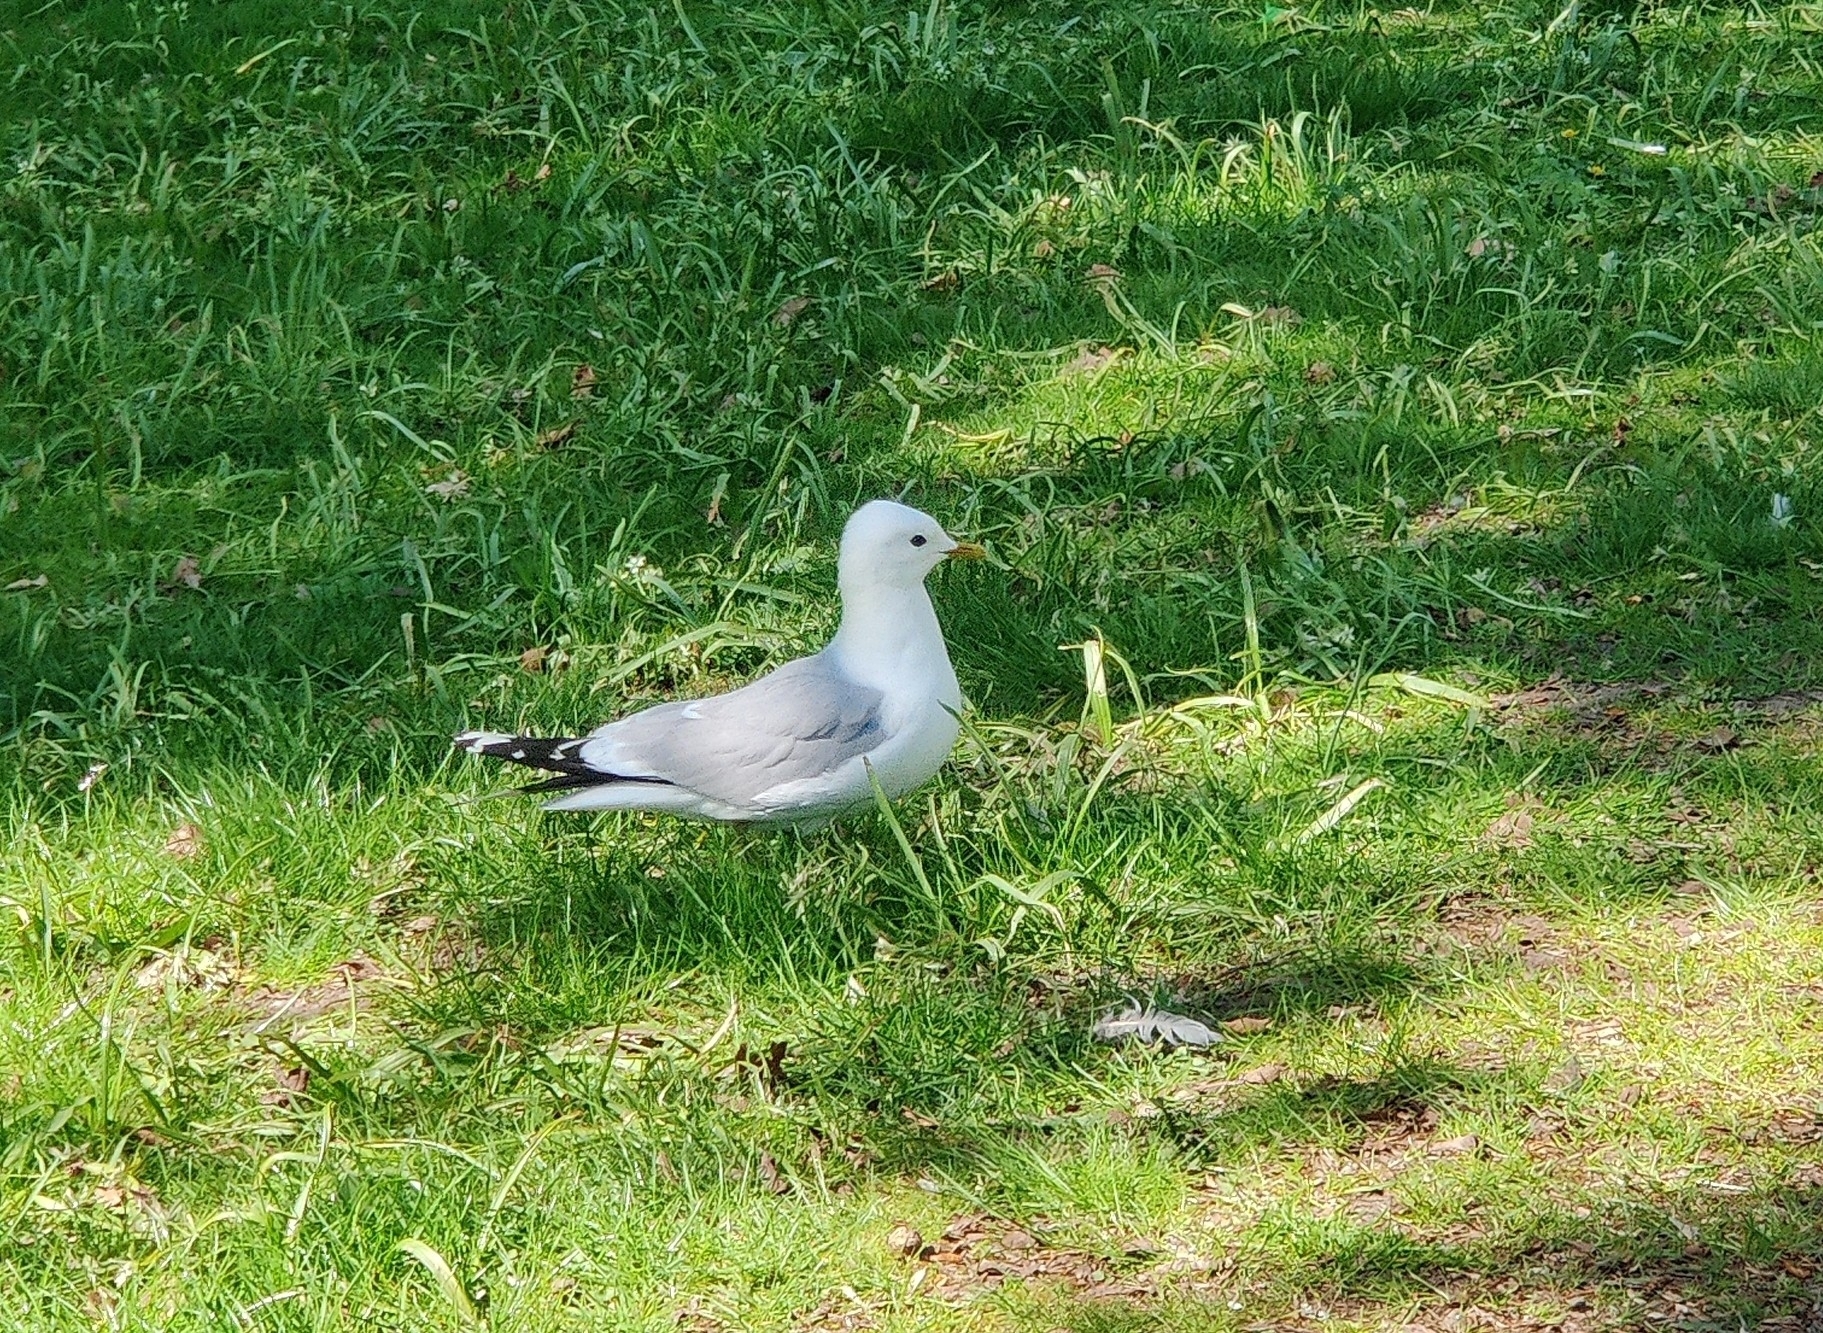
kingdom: Animalia
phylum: Chordata
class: Aves
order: Charadriiformes
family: Laridae
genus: Larus
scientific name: Larus canus
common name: Mew gull
